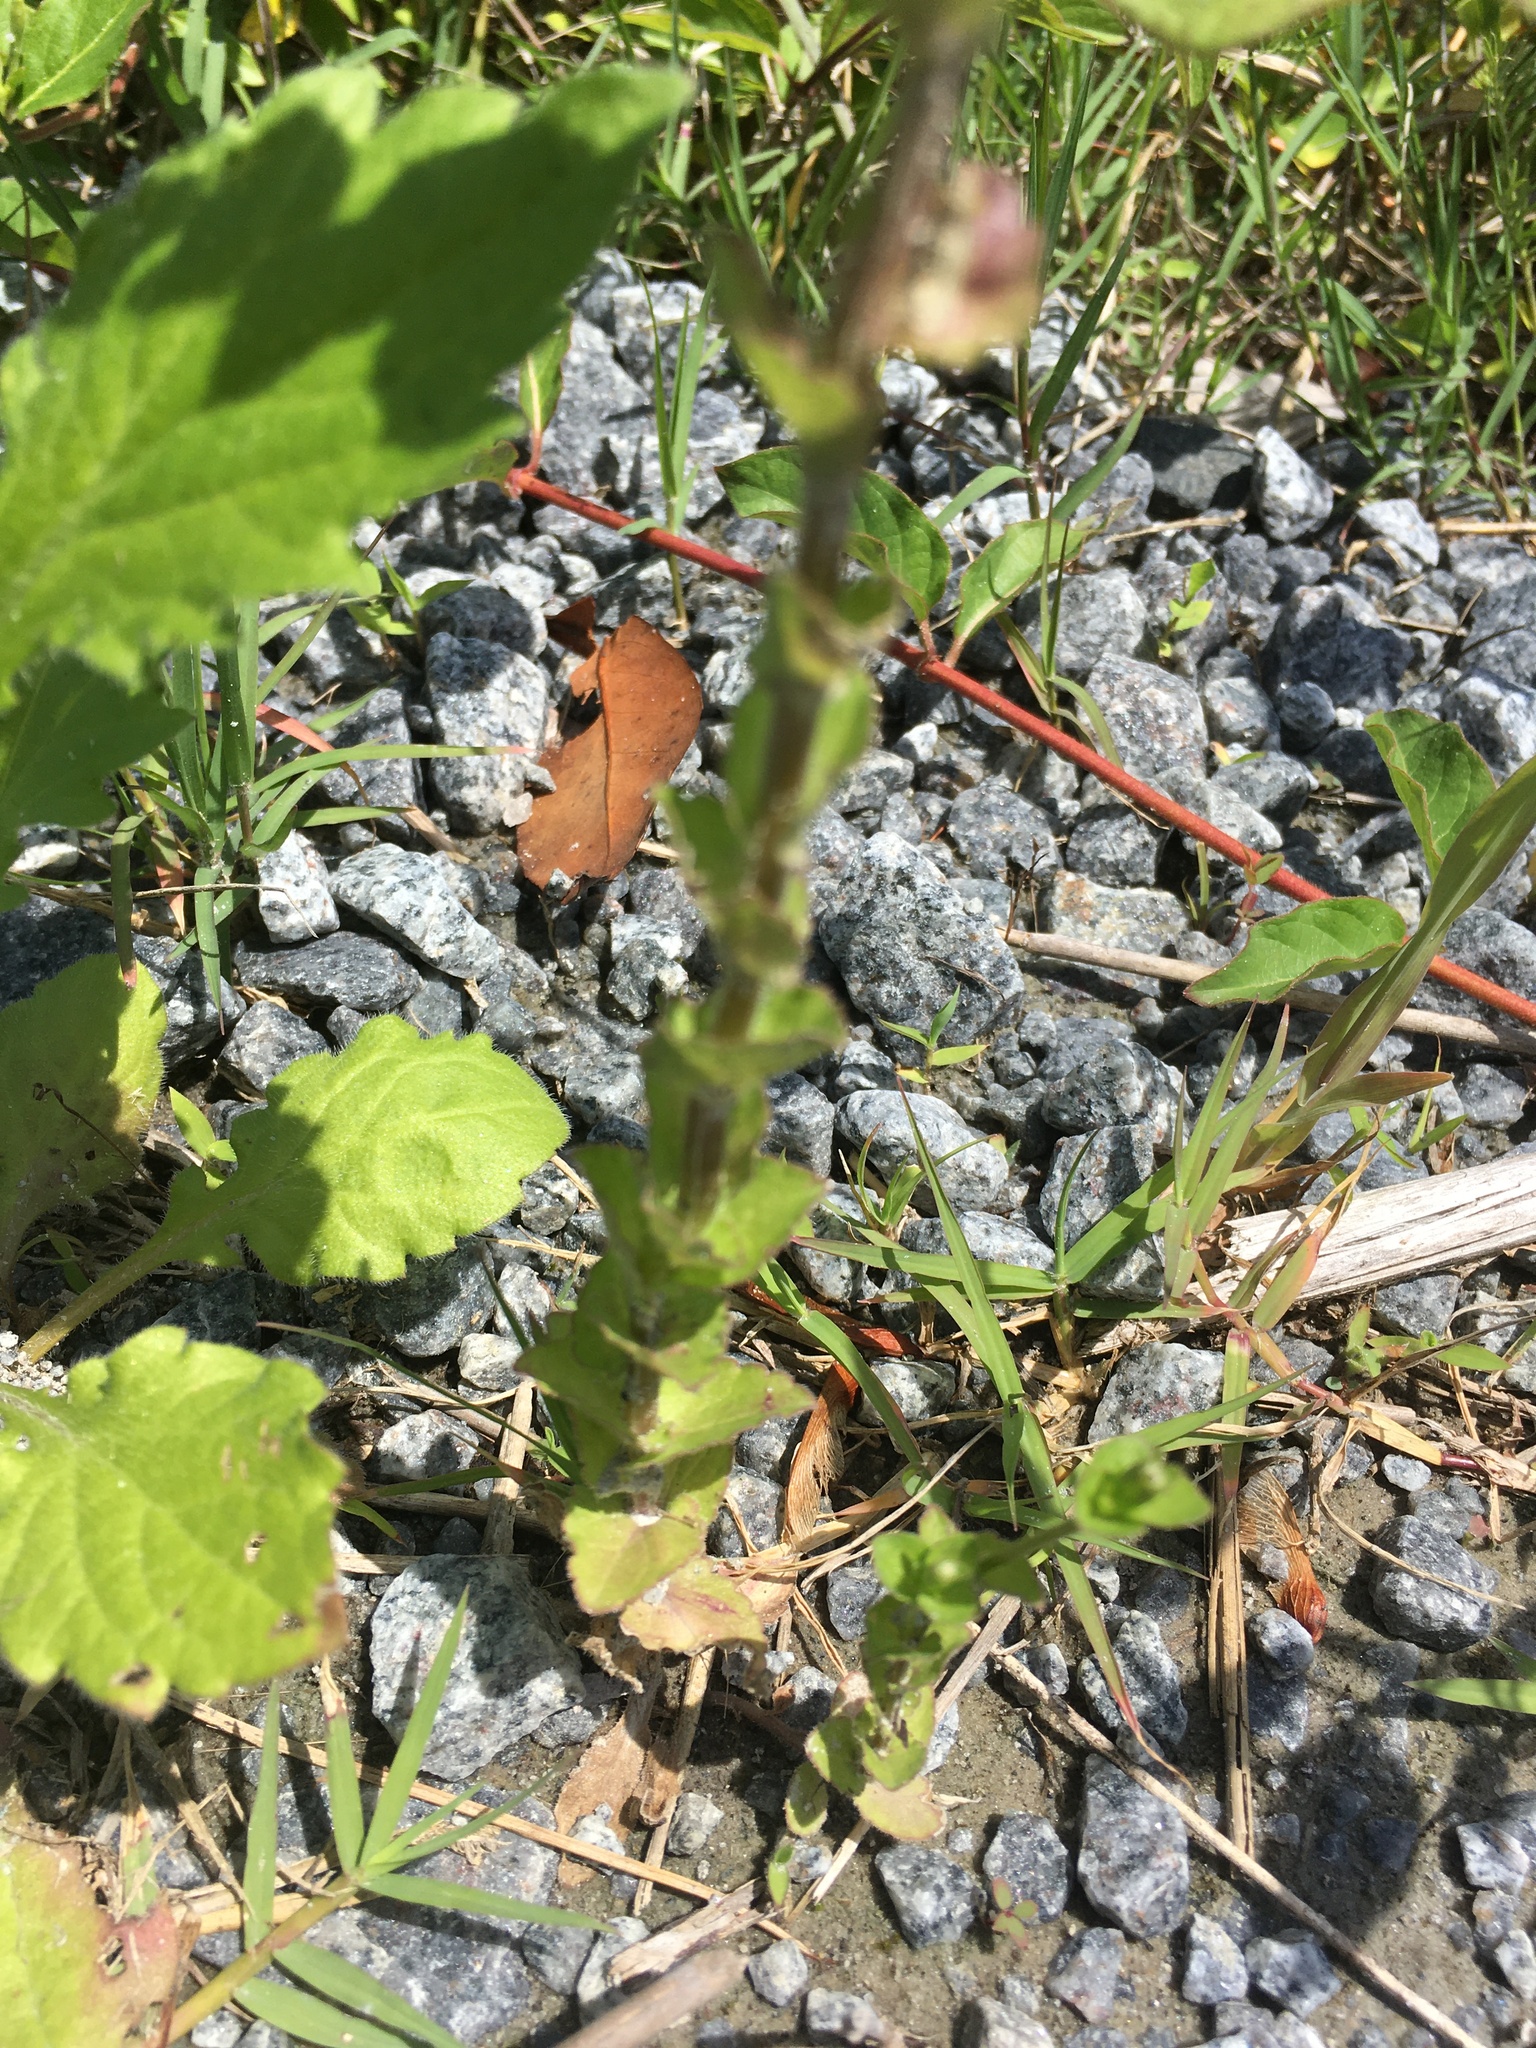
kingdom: Plantae
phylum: Tracheophyta
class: Magnoliopsida
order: Asterales
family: Campanulaceae
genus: Triodanis
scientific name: Triodanis perfoliata
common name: Clasping venus' looking-glass
